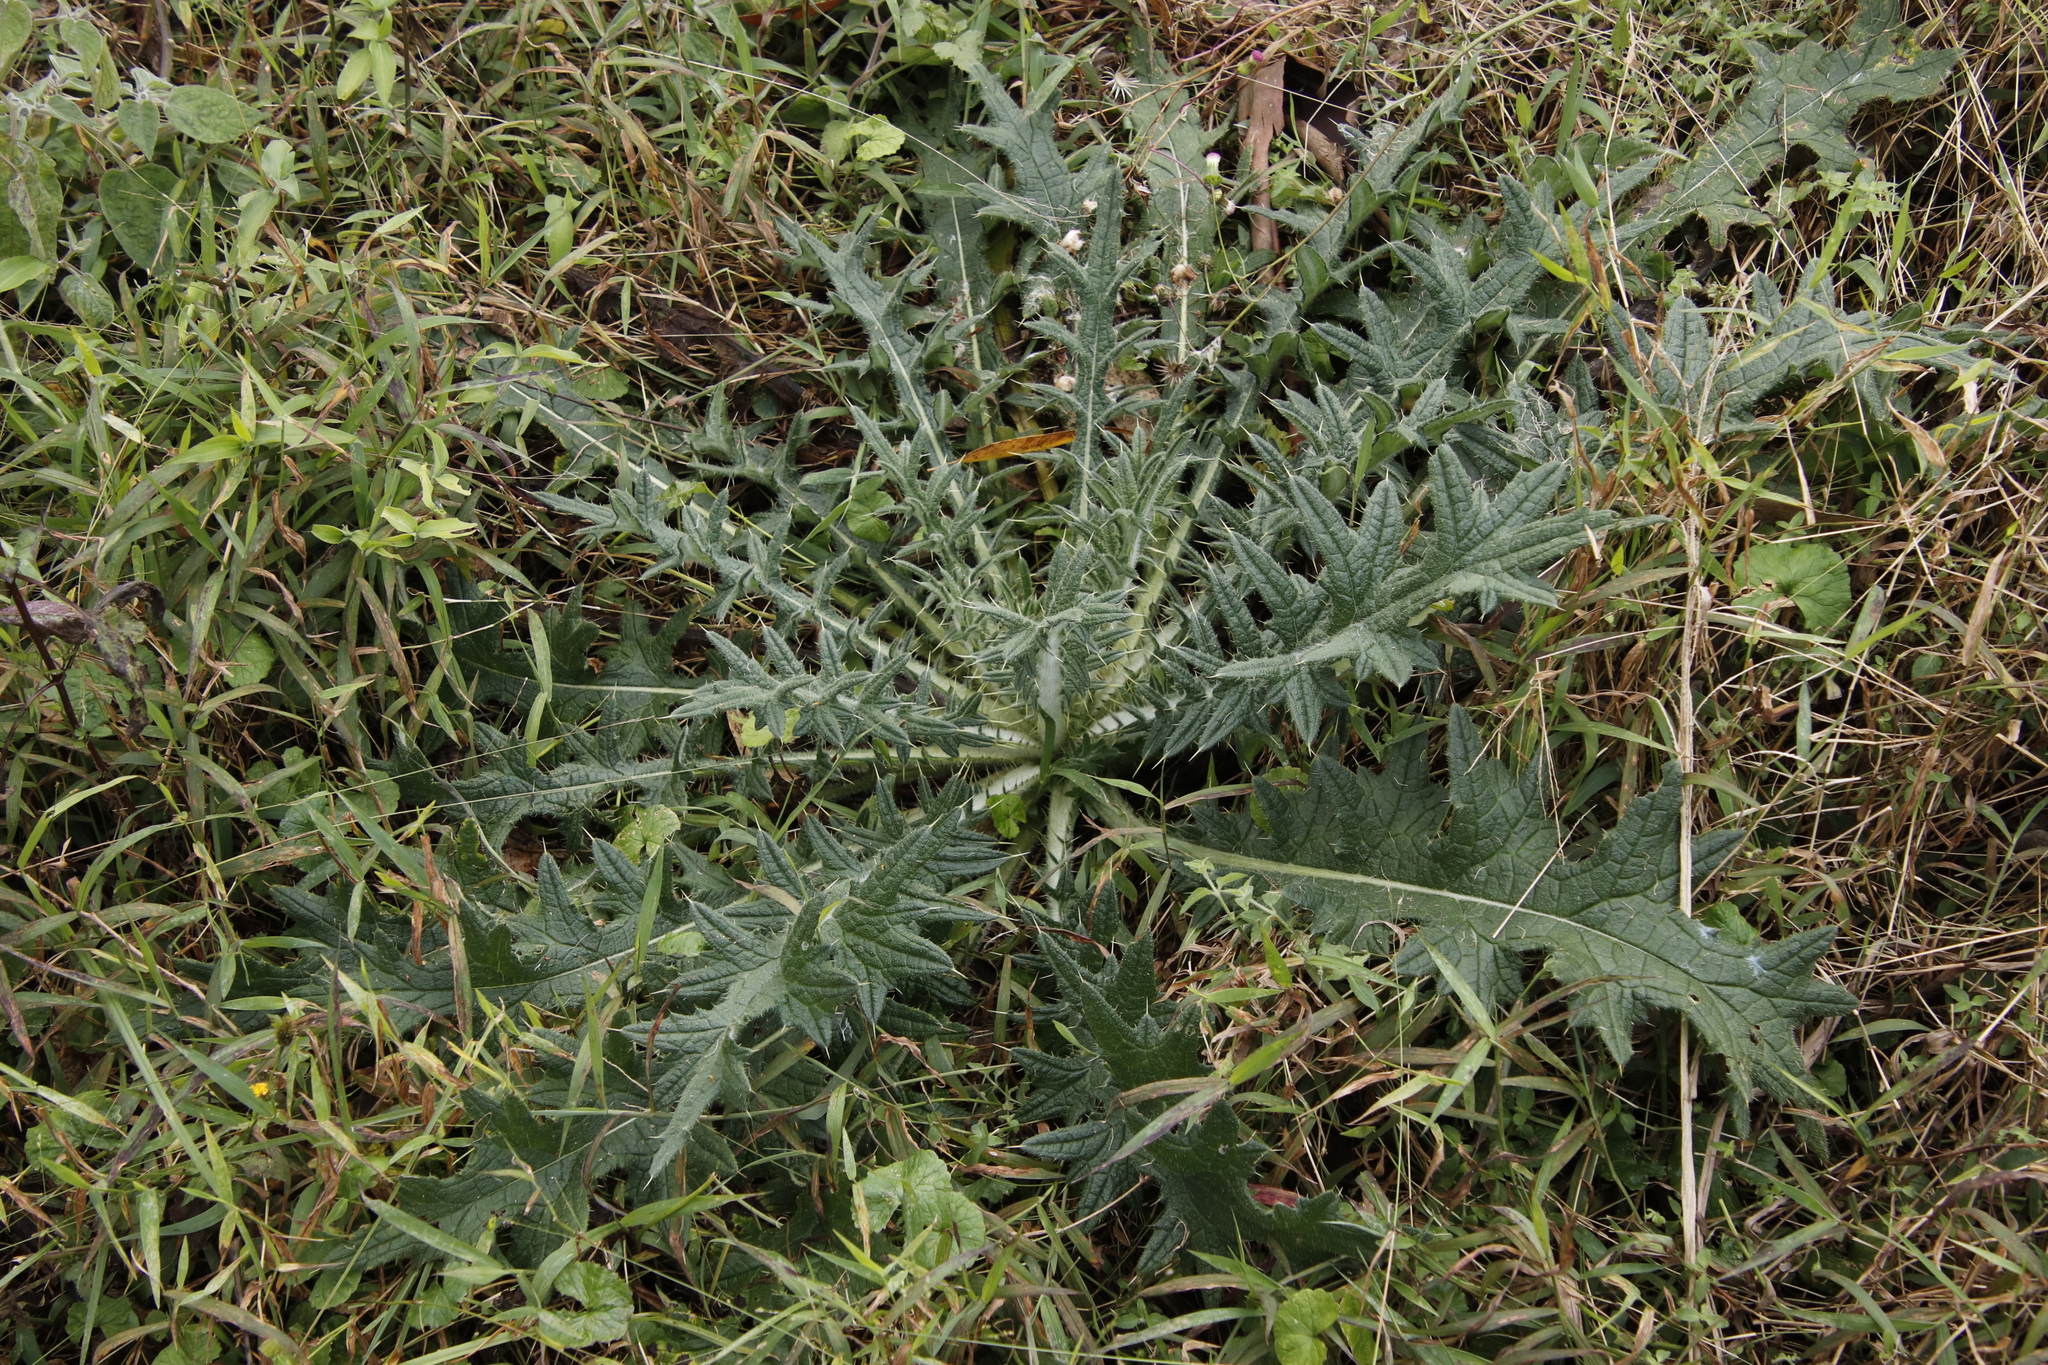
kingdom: Plantae
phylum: Tracheophyta
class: Magnoliopsida
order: Asterales
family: Asteraceae
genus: Cirsium
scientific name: Cirsium vulgare
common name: Bull thistle
